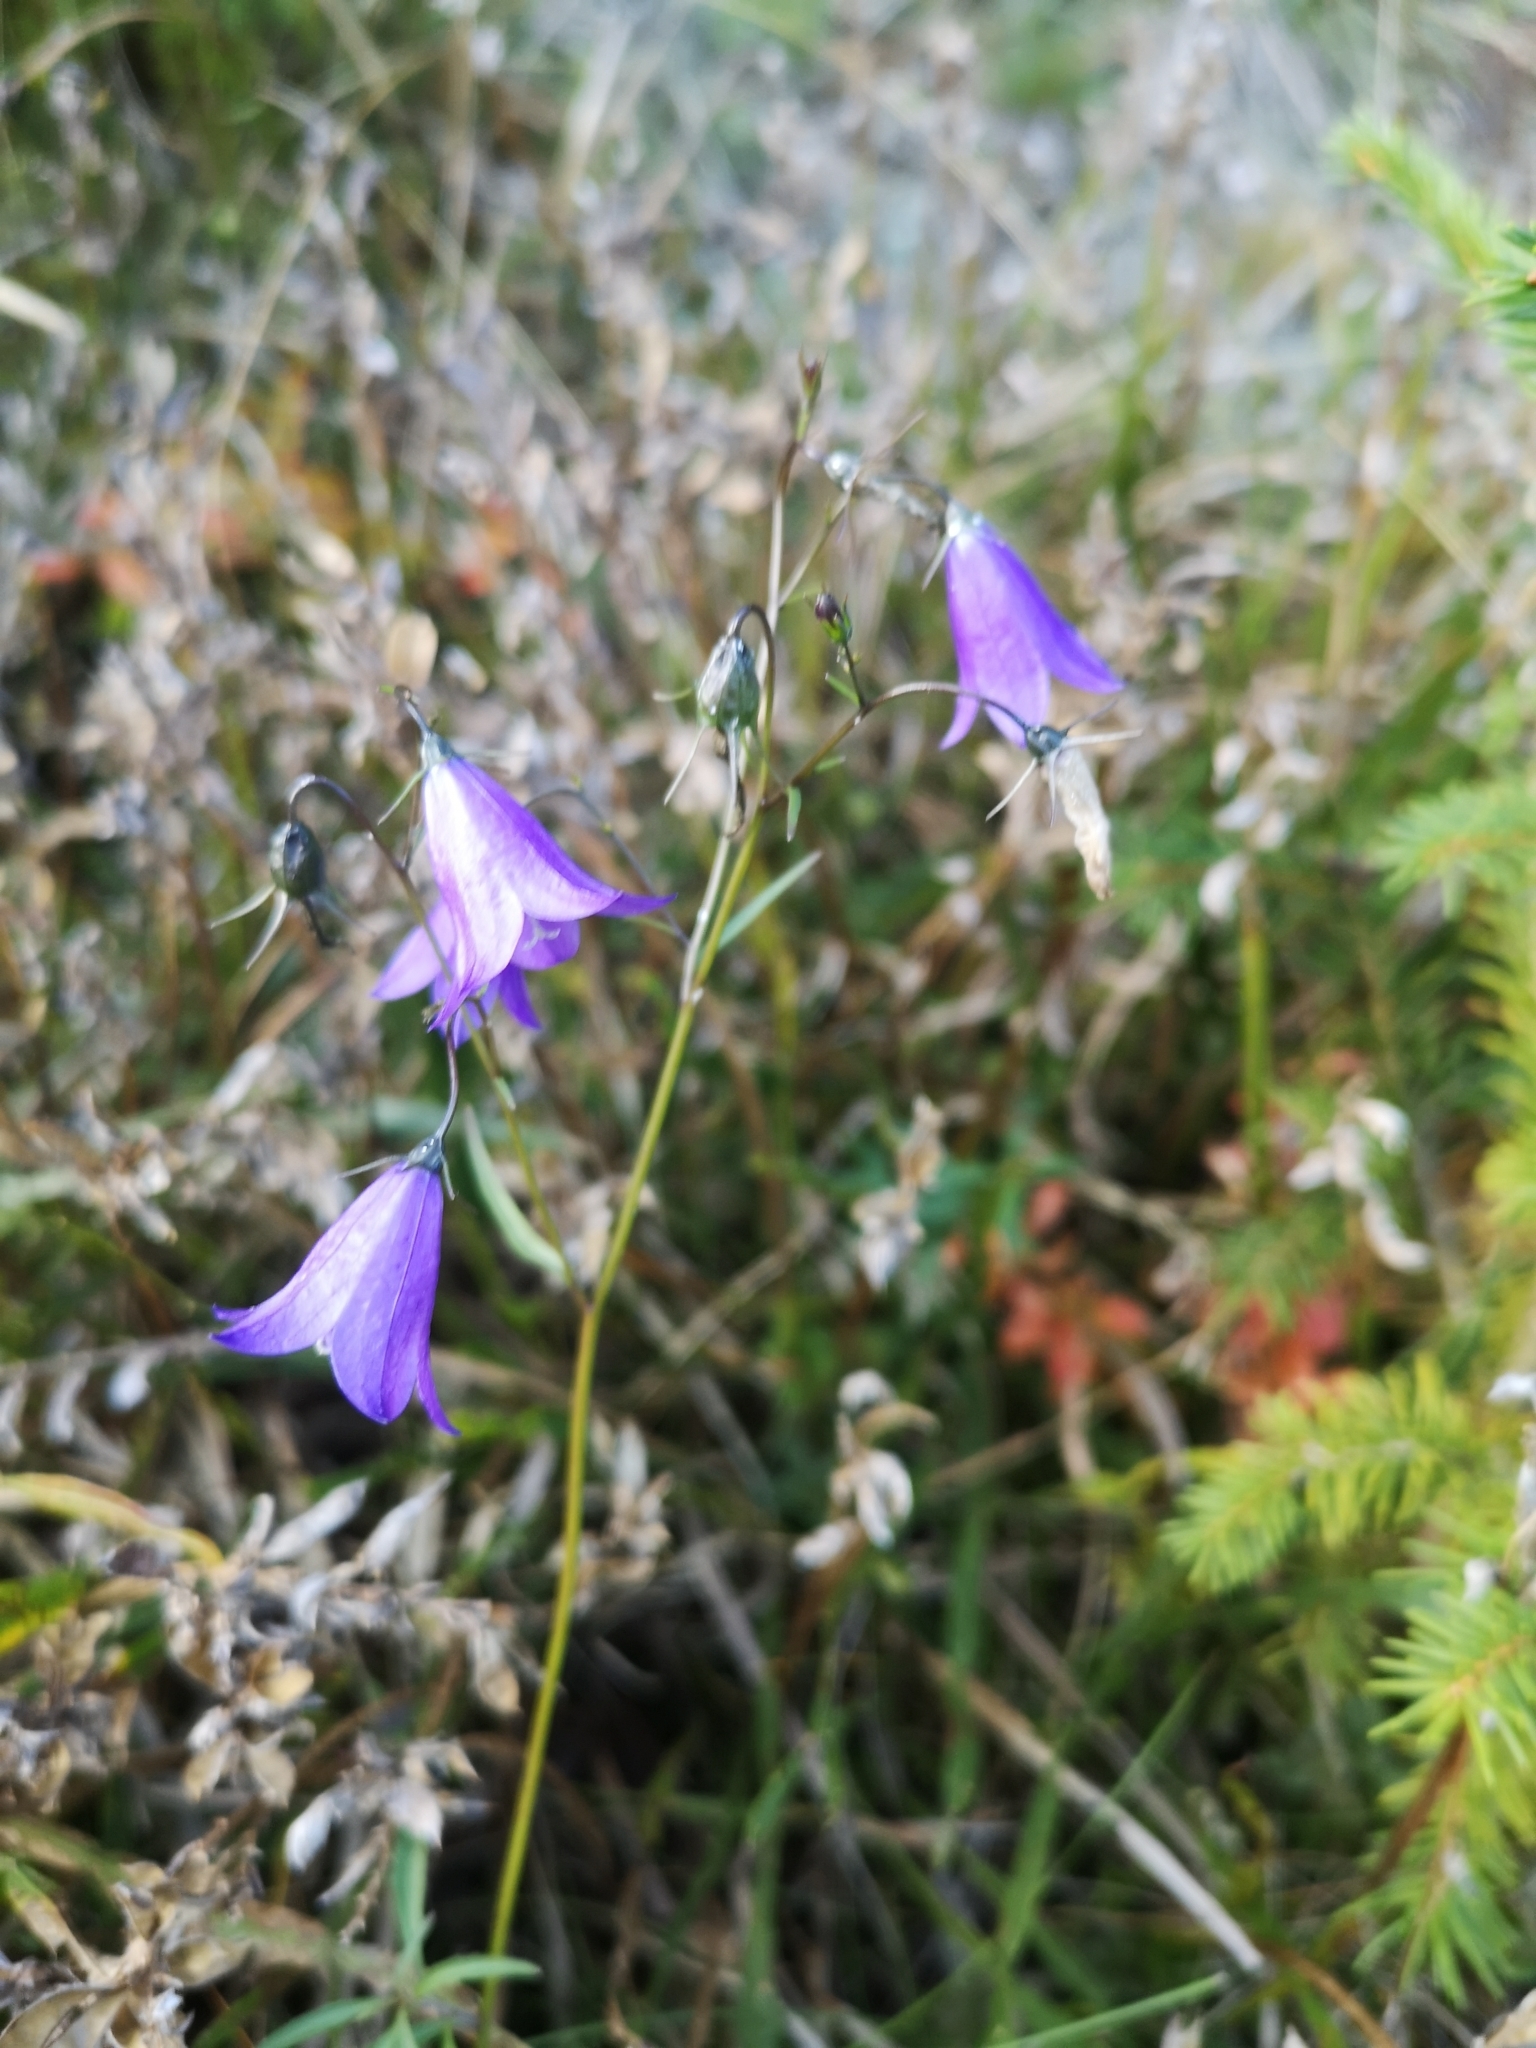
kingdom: Plantae
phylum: Tracheophyta
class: Magnoliopsida
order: Asterales
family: Campanulaceae
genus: Campanula
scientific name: Campanula rotundifolia
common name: Harebell
